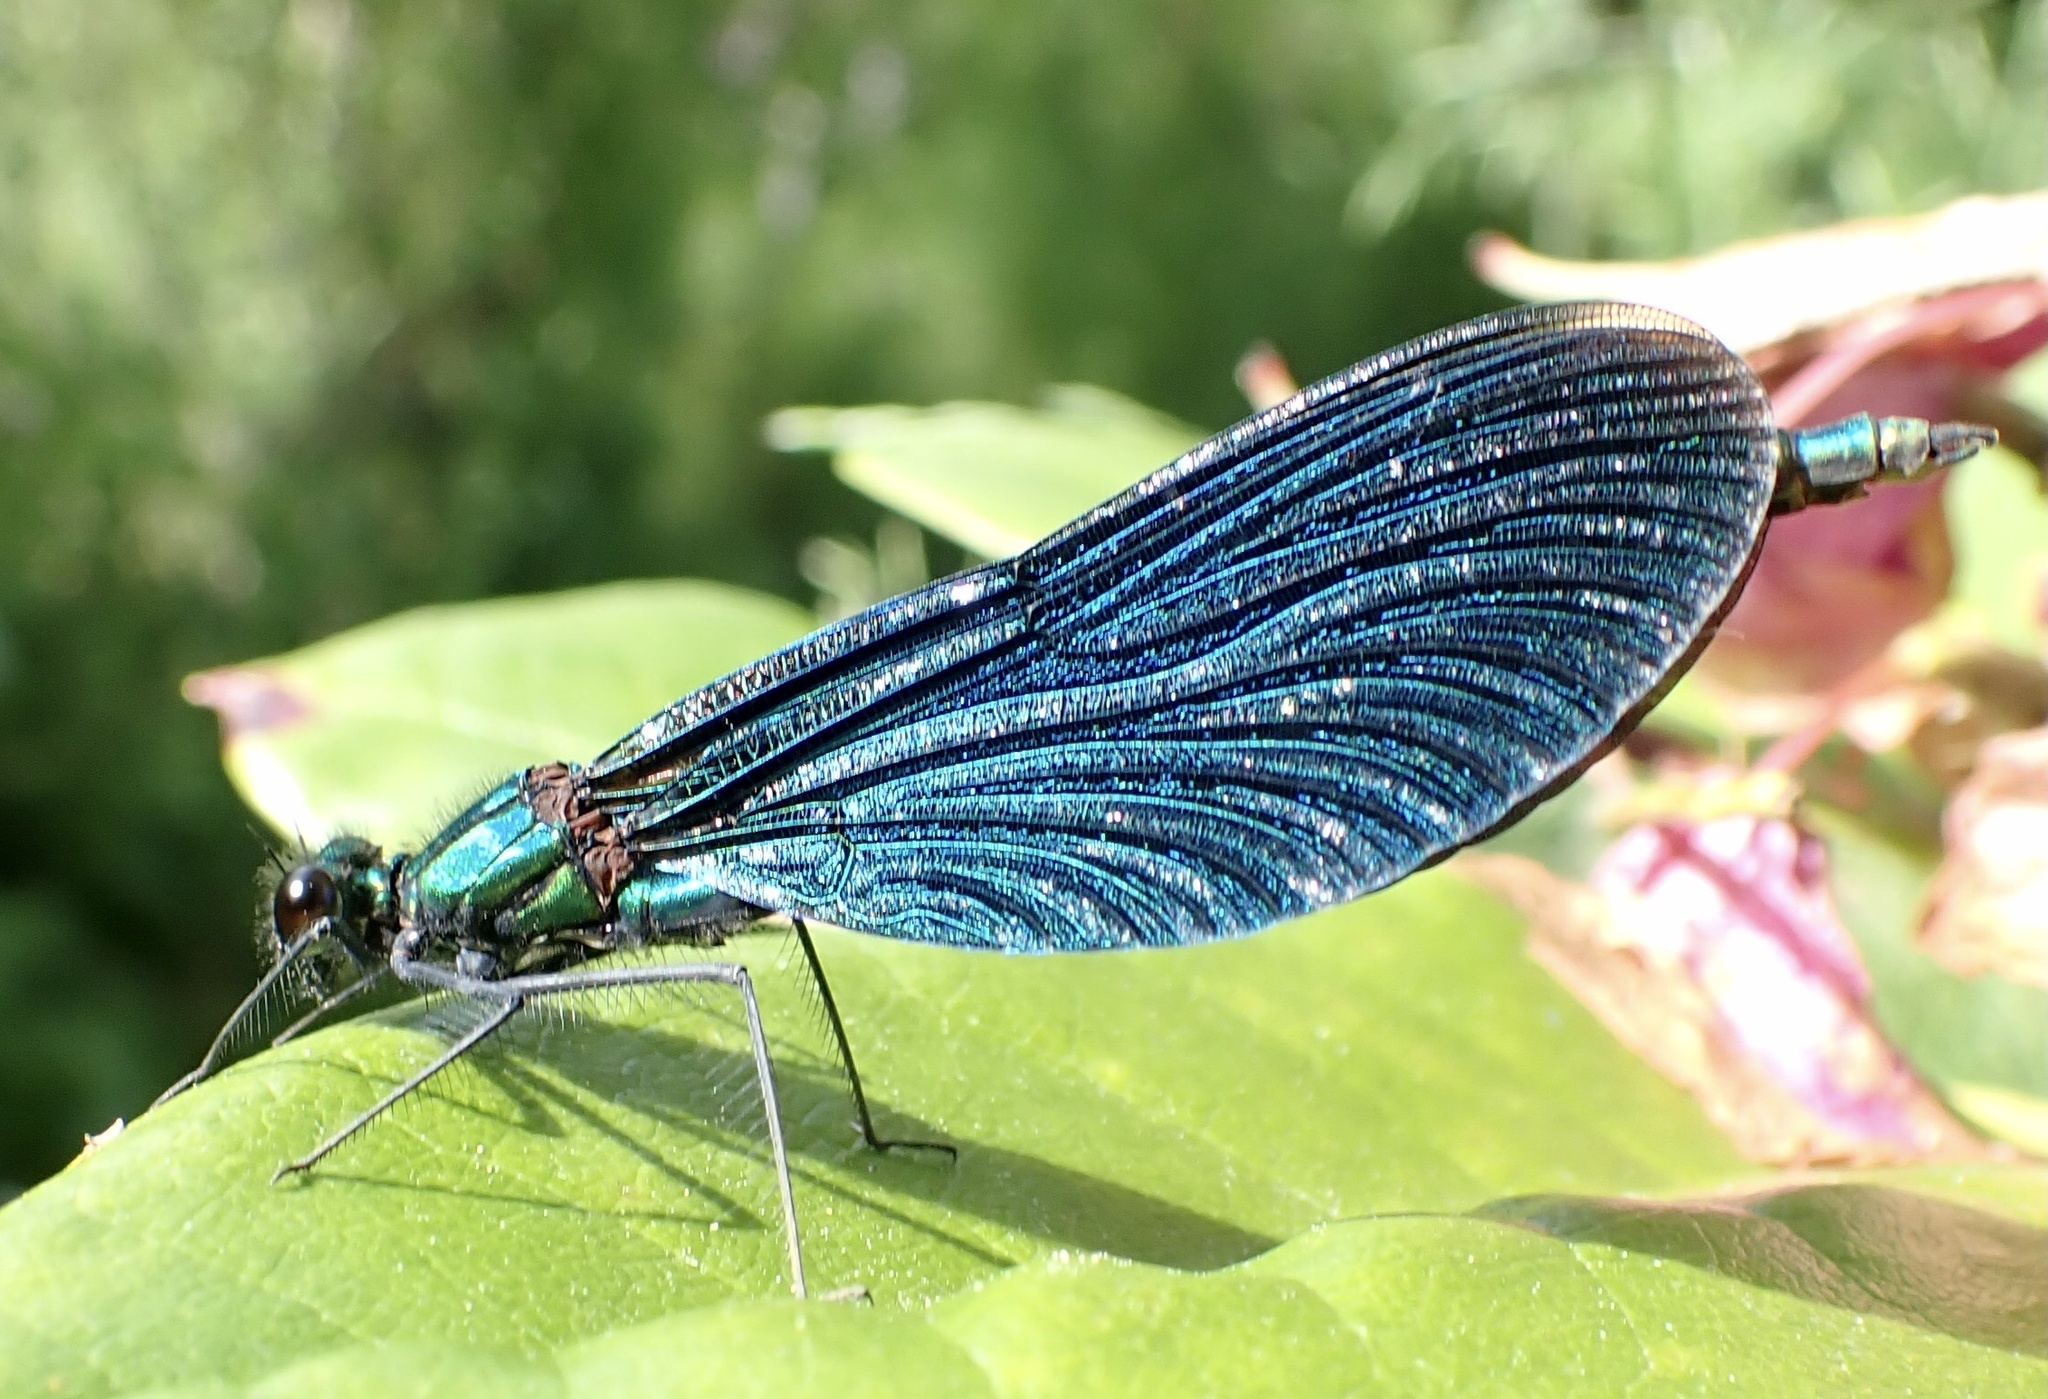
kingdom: Animalia
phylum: Arthropoda
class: Insecta
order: Odonata
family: Calopterygidae
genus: Calopteryx
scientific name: Calopteryx virgo
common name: Beautiful demoiselle
